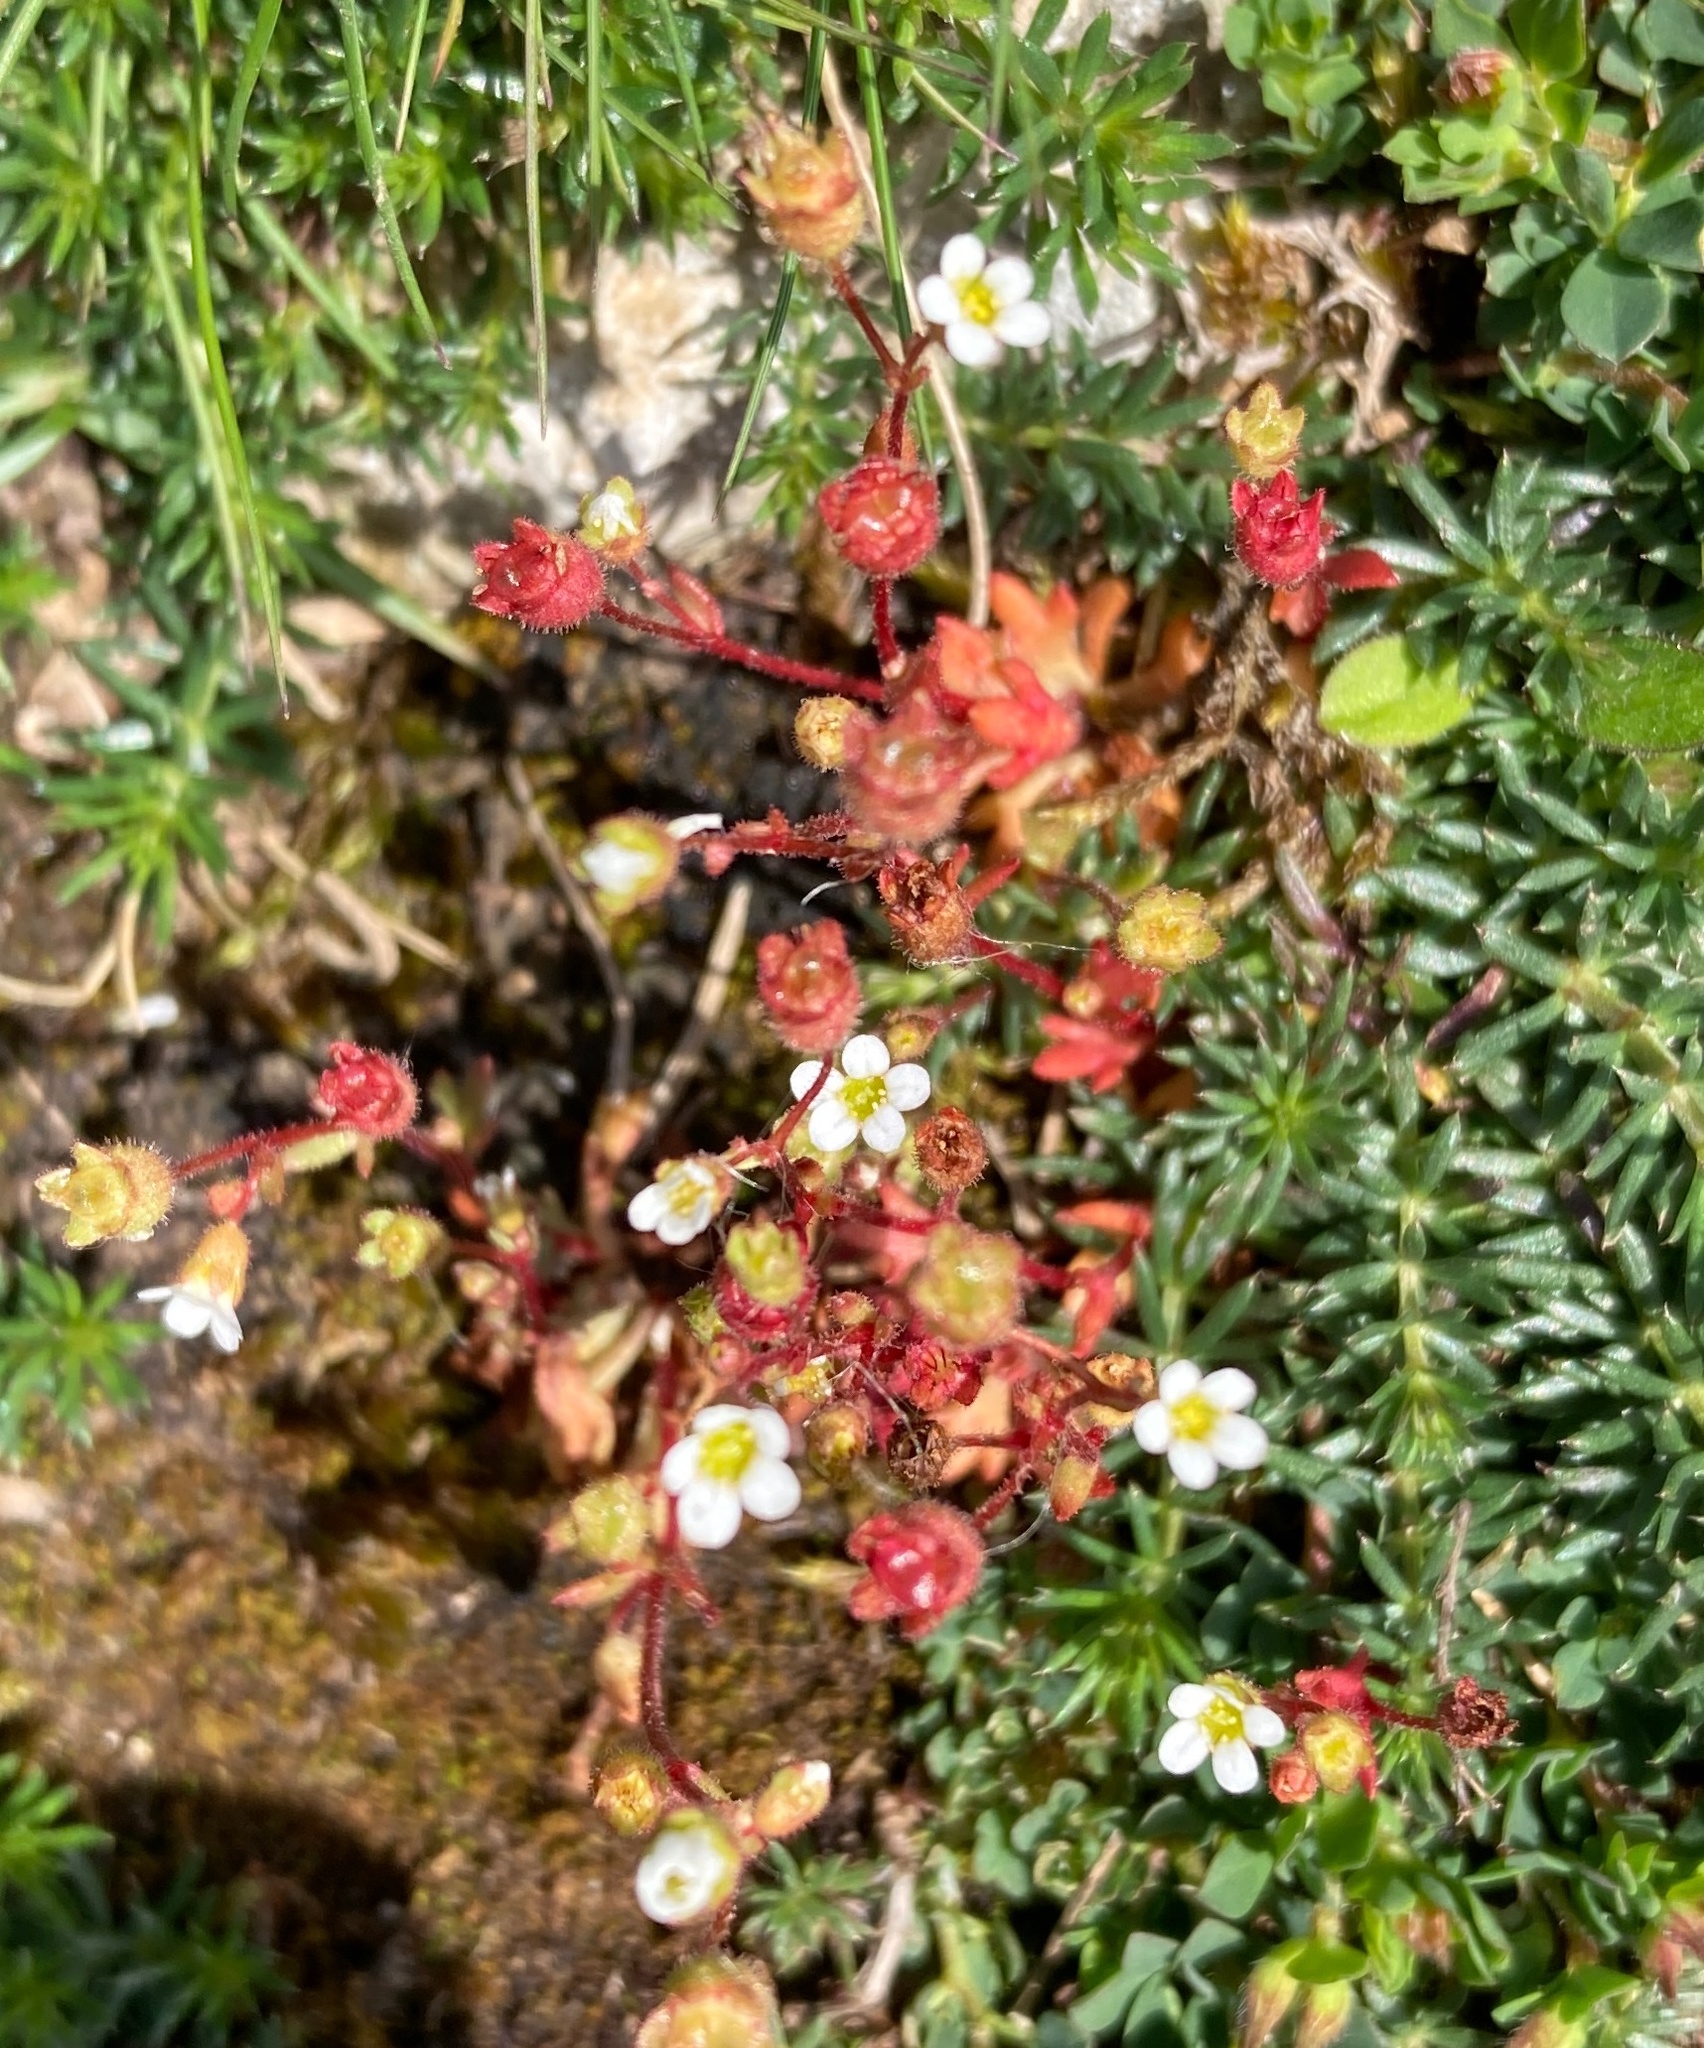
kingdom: Plantae
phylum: Tracheophyta
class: Magnoliopsida
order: Saxifragales
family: Saxifragaceae
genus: Saxifraga
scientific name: Saxifraga tridactylites
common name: Rue-leaved saxifrage
